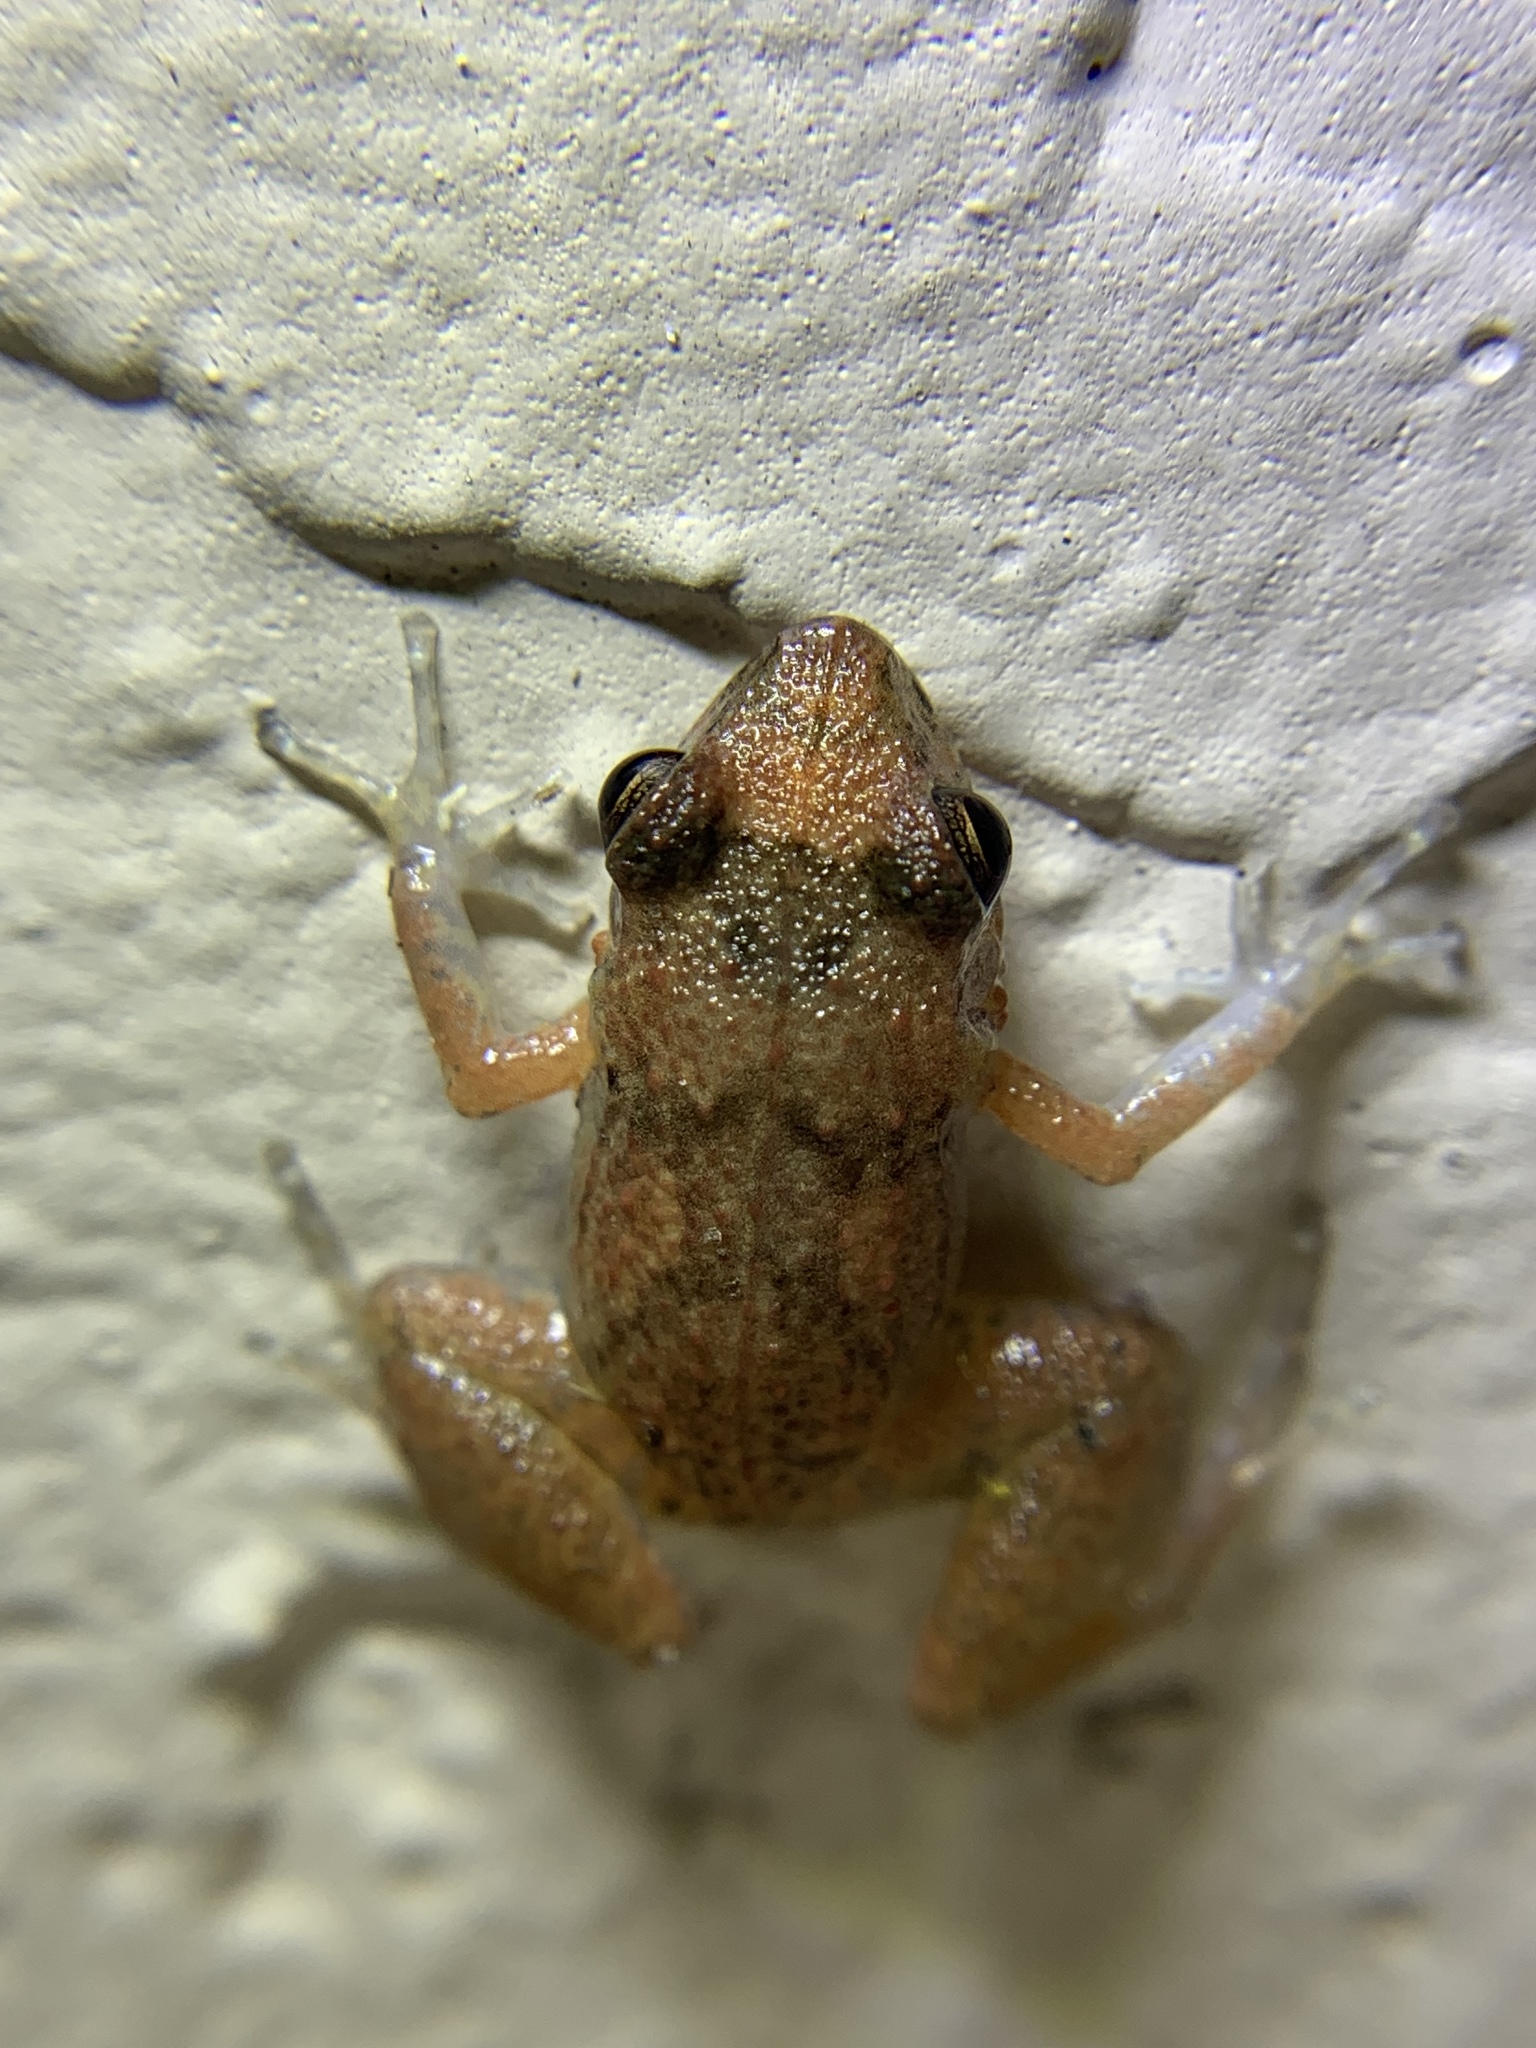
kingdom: Animalia
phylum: Chordata
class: Amphibia
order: Anura
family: Eleutherodactylidae
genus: Eleutherodactylus
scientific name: Eleutherodactylus planirostris
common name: Greenhouse frog
